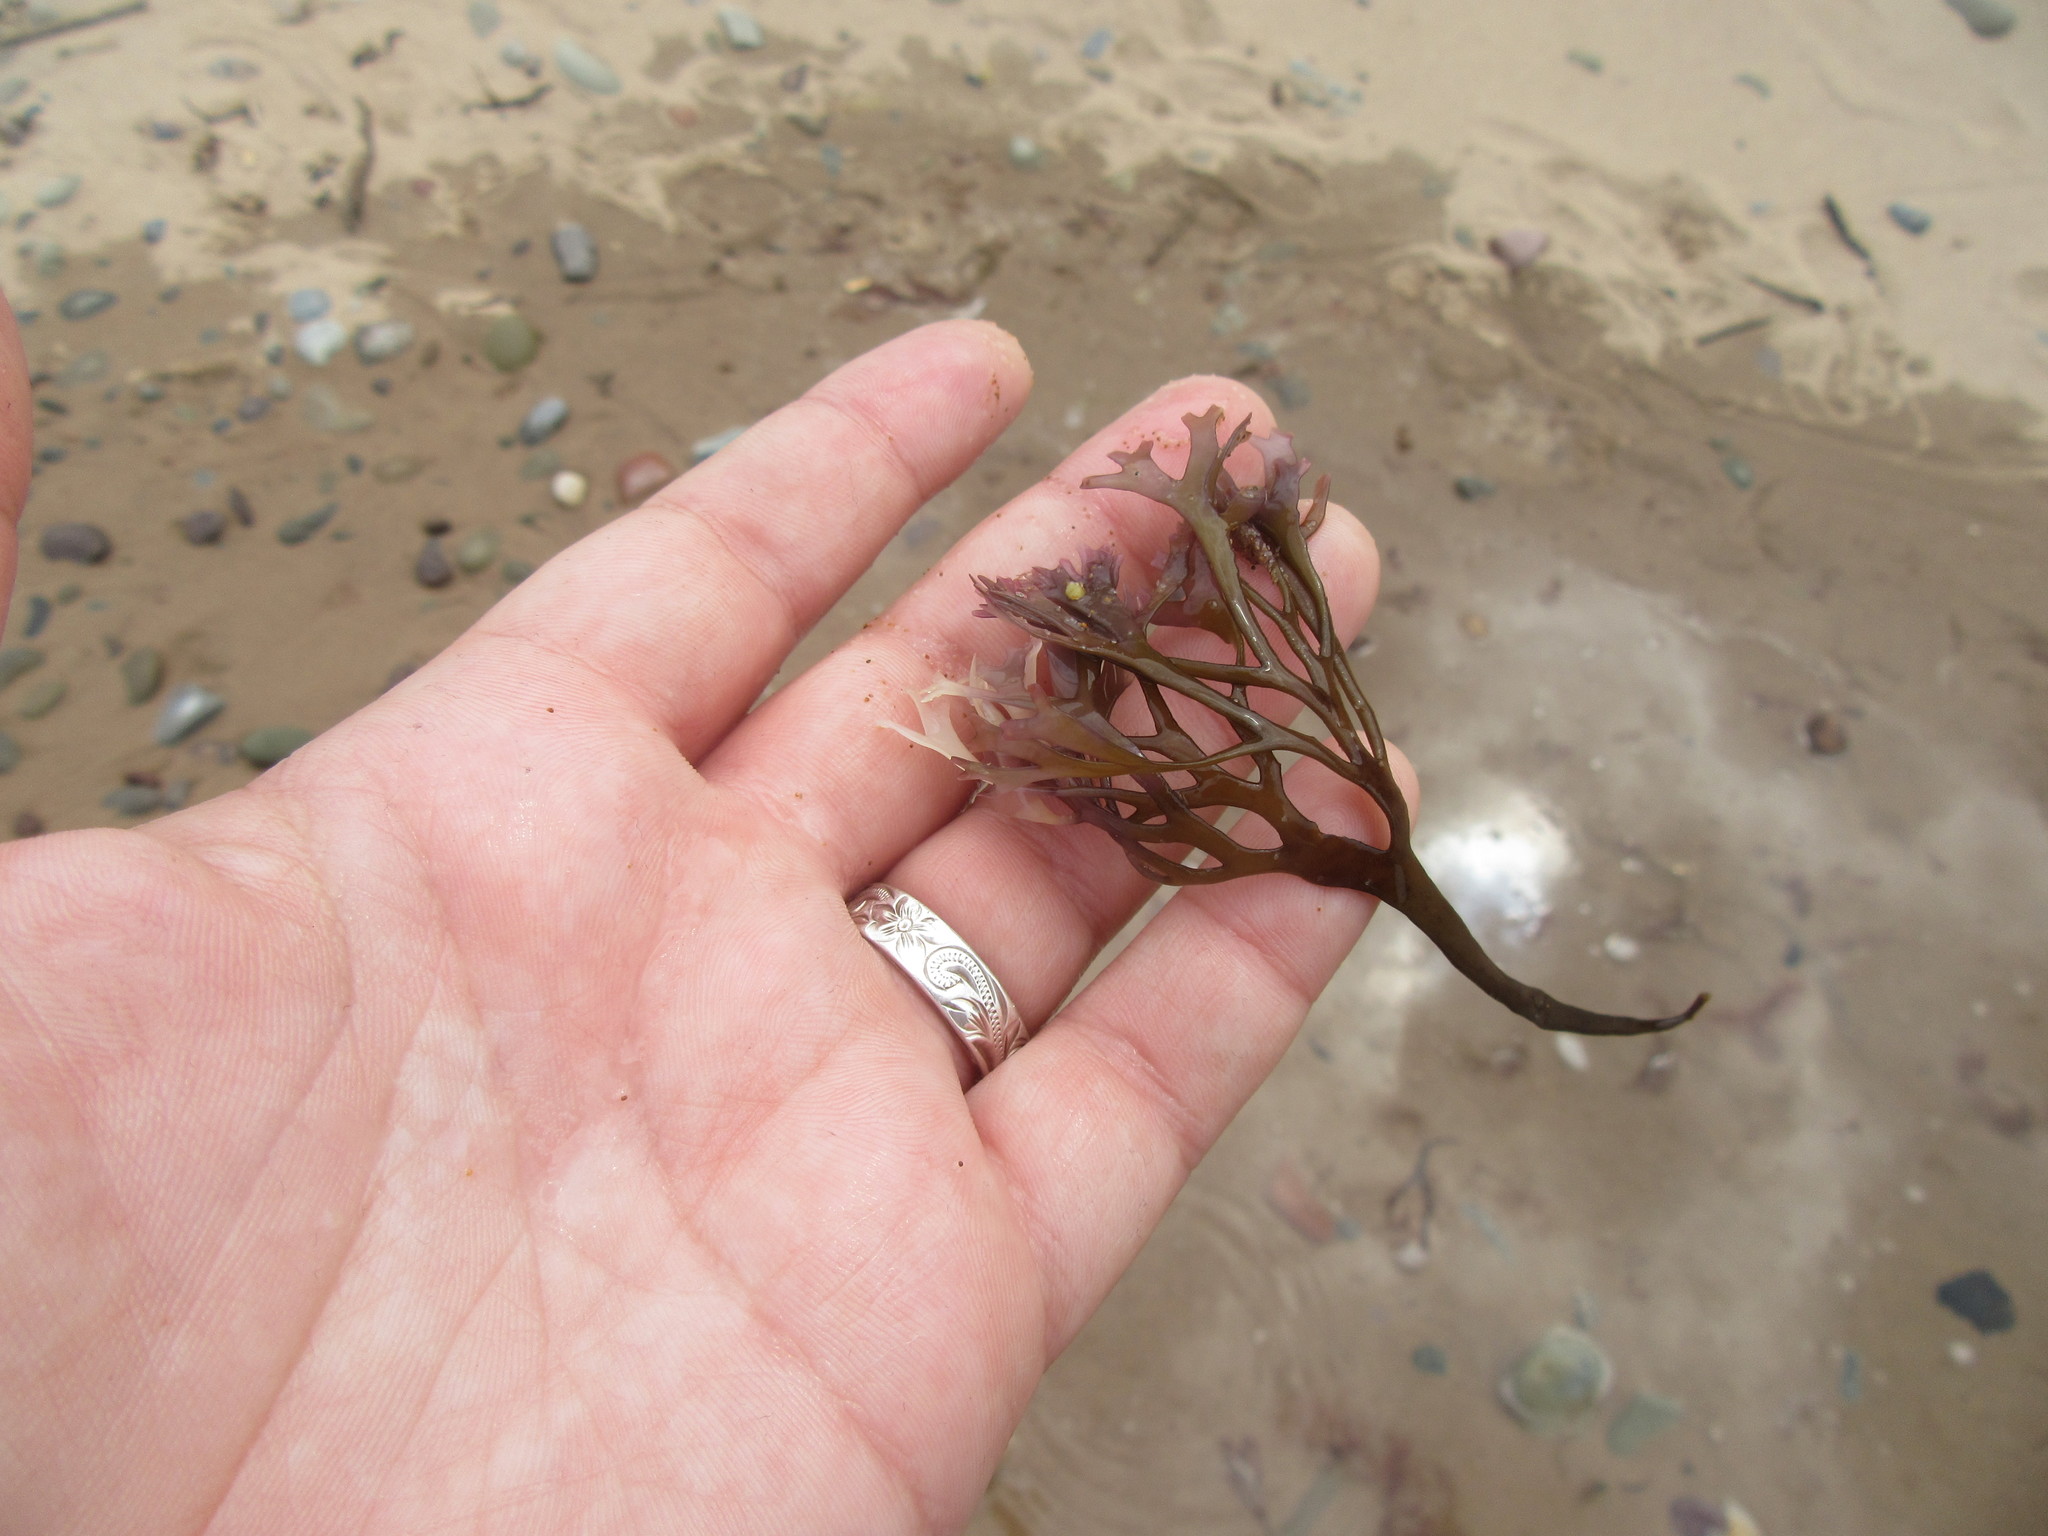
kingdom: Plantae
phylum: Rhodophyta
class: Florideophyceae
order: Gigartinales
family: Gigartinaceae
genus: Chondrus
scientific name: Chondrus crispus
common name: Carrageen
